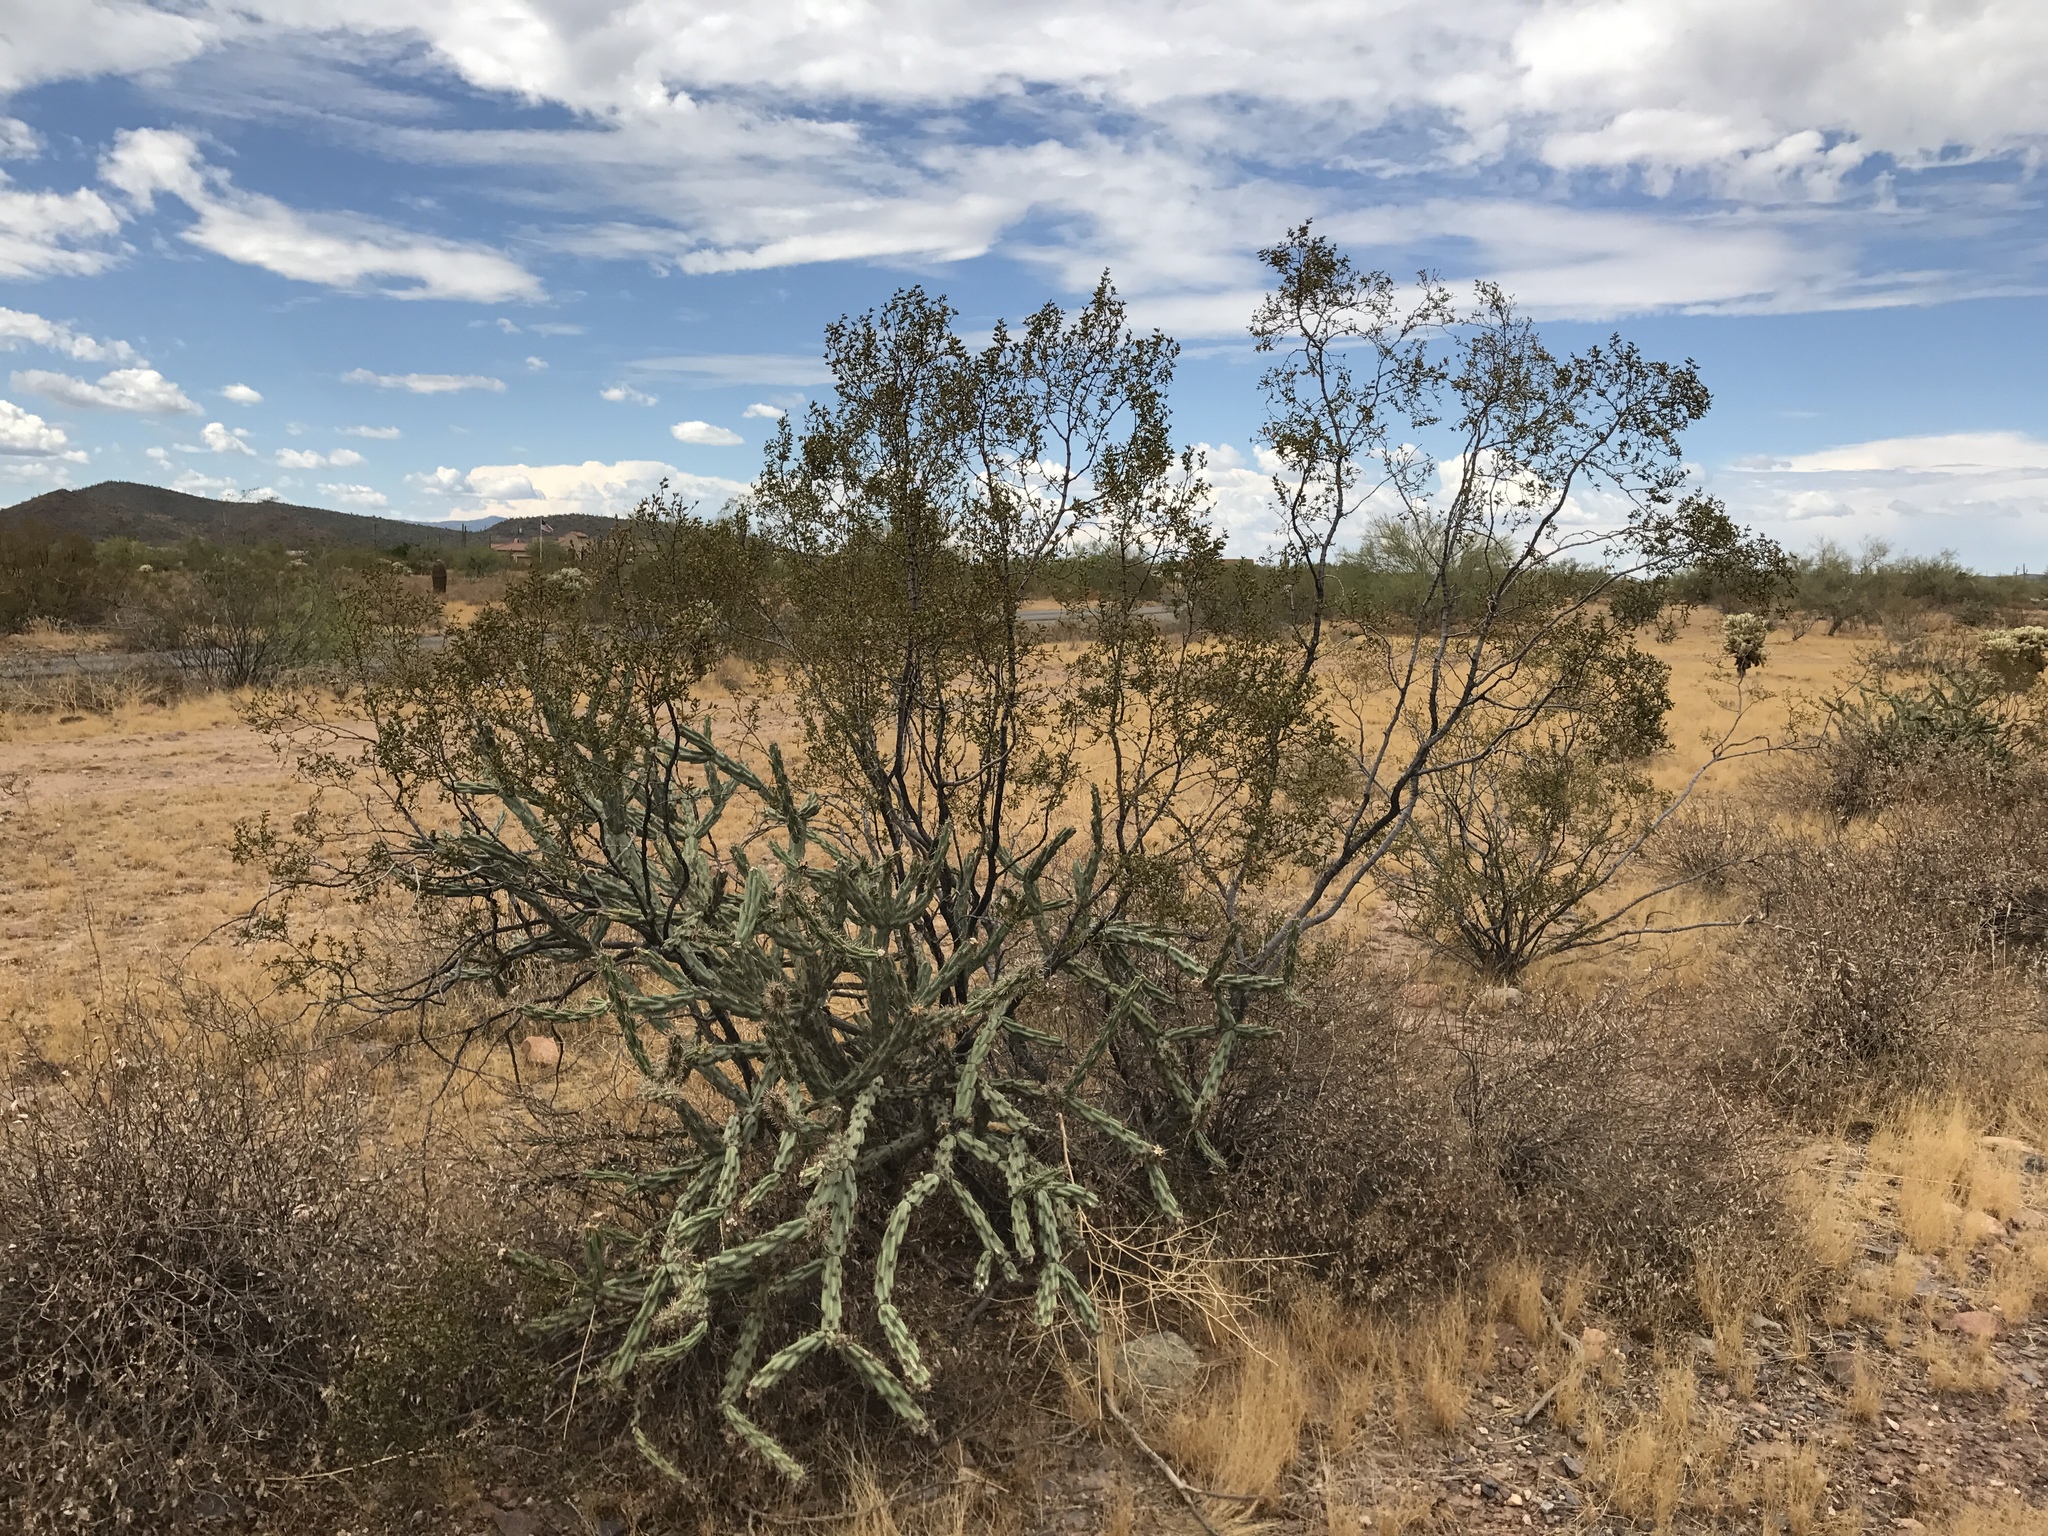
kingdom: Plantae
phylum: Tracheophyta
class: Magnoliopsida
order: Zygophyllales
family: Zygophyllaceae
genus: Larrea
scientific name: Larrea tridentata
